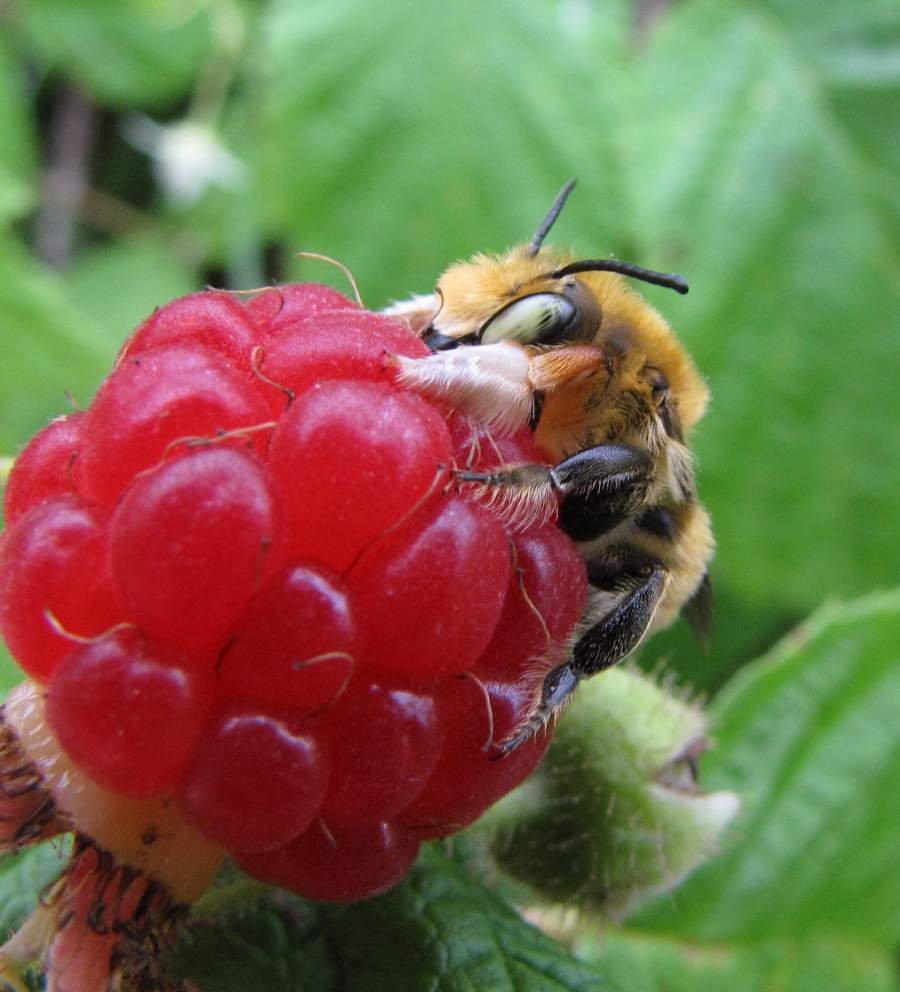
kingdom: Animalia
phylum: Arthropoda
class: Insecta
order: Hymenoptera
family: Megachilidae
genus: Megachile
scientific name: Megachile latimanus
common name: Leafcutting bee
